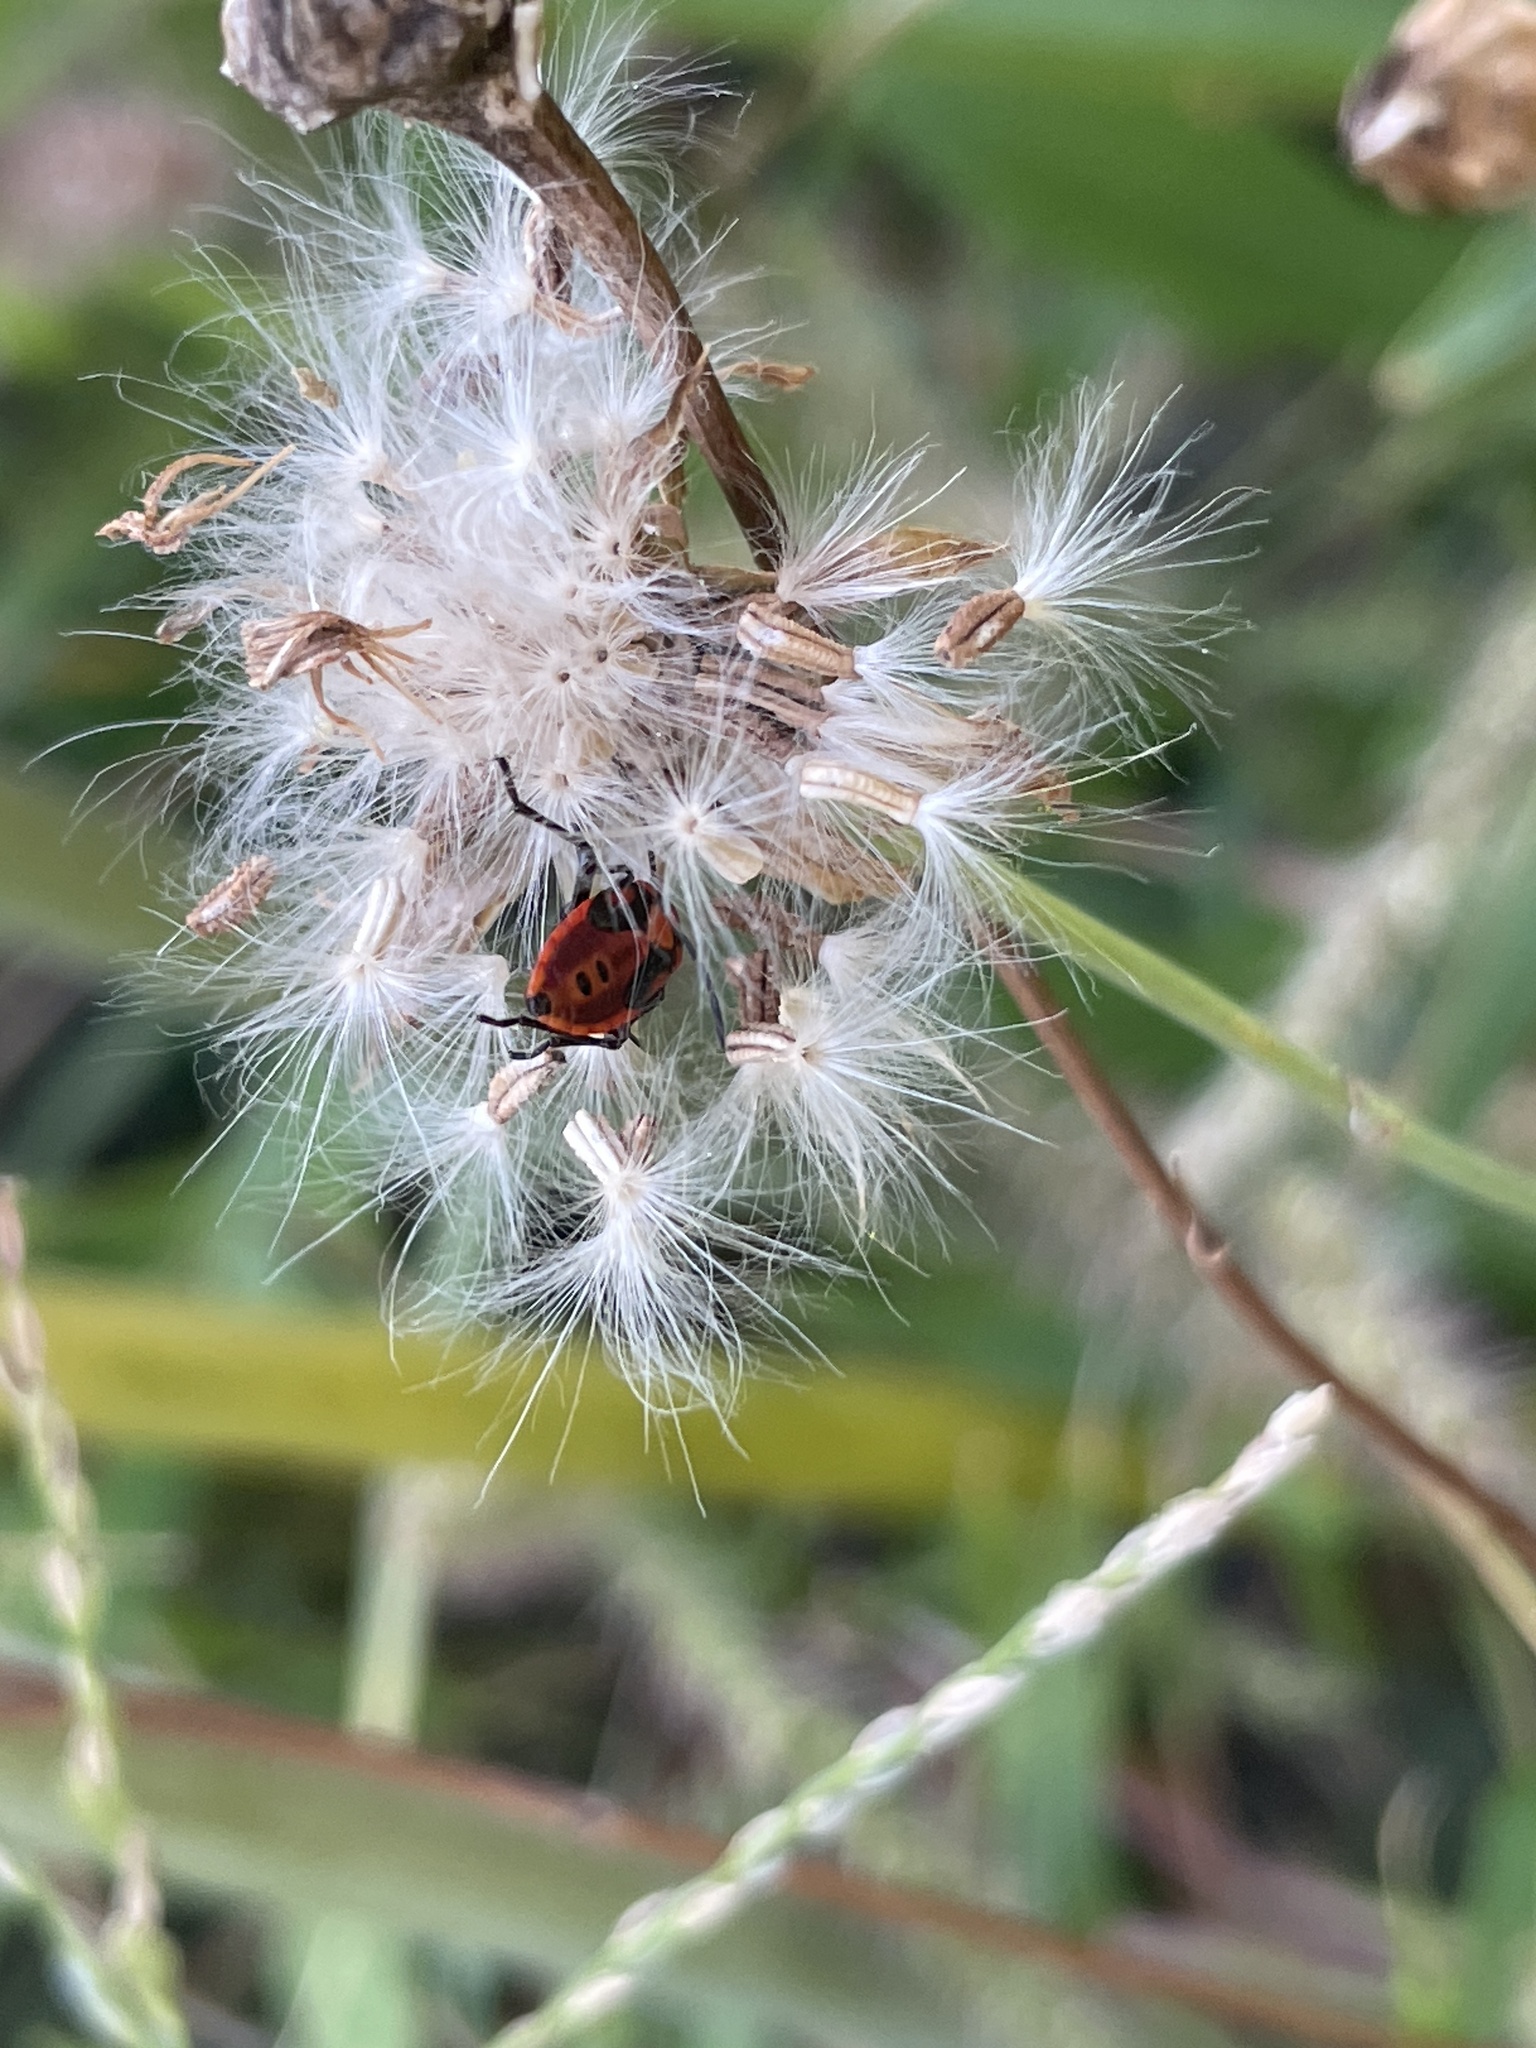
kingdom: Plantae
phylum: Tracheophyta
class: Magnoliopsida
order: Asterales
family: Asteraceae
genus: Erigeron
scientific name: Erigeron canadensis
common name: Canadian fleabane
